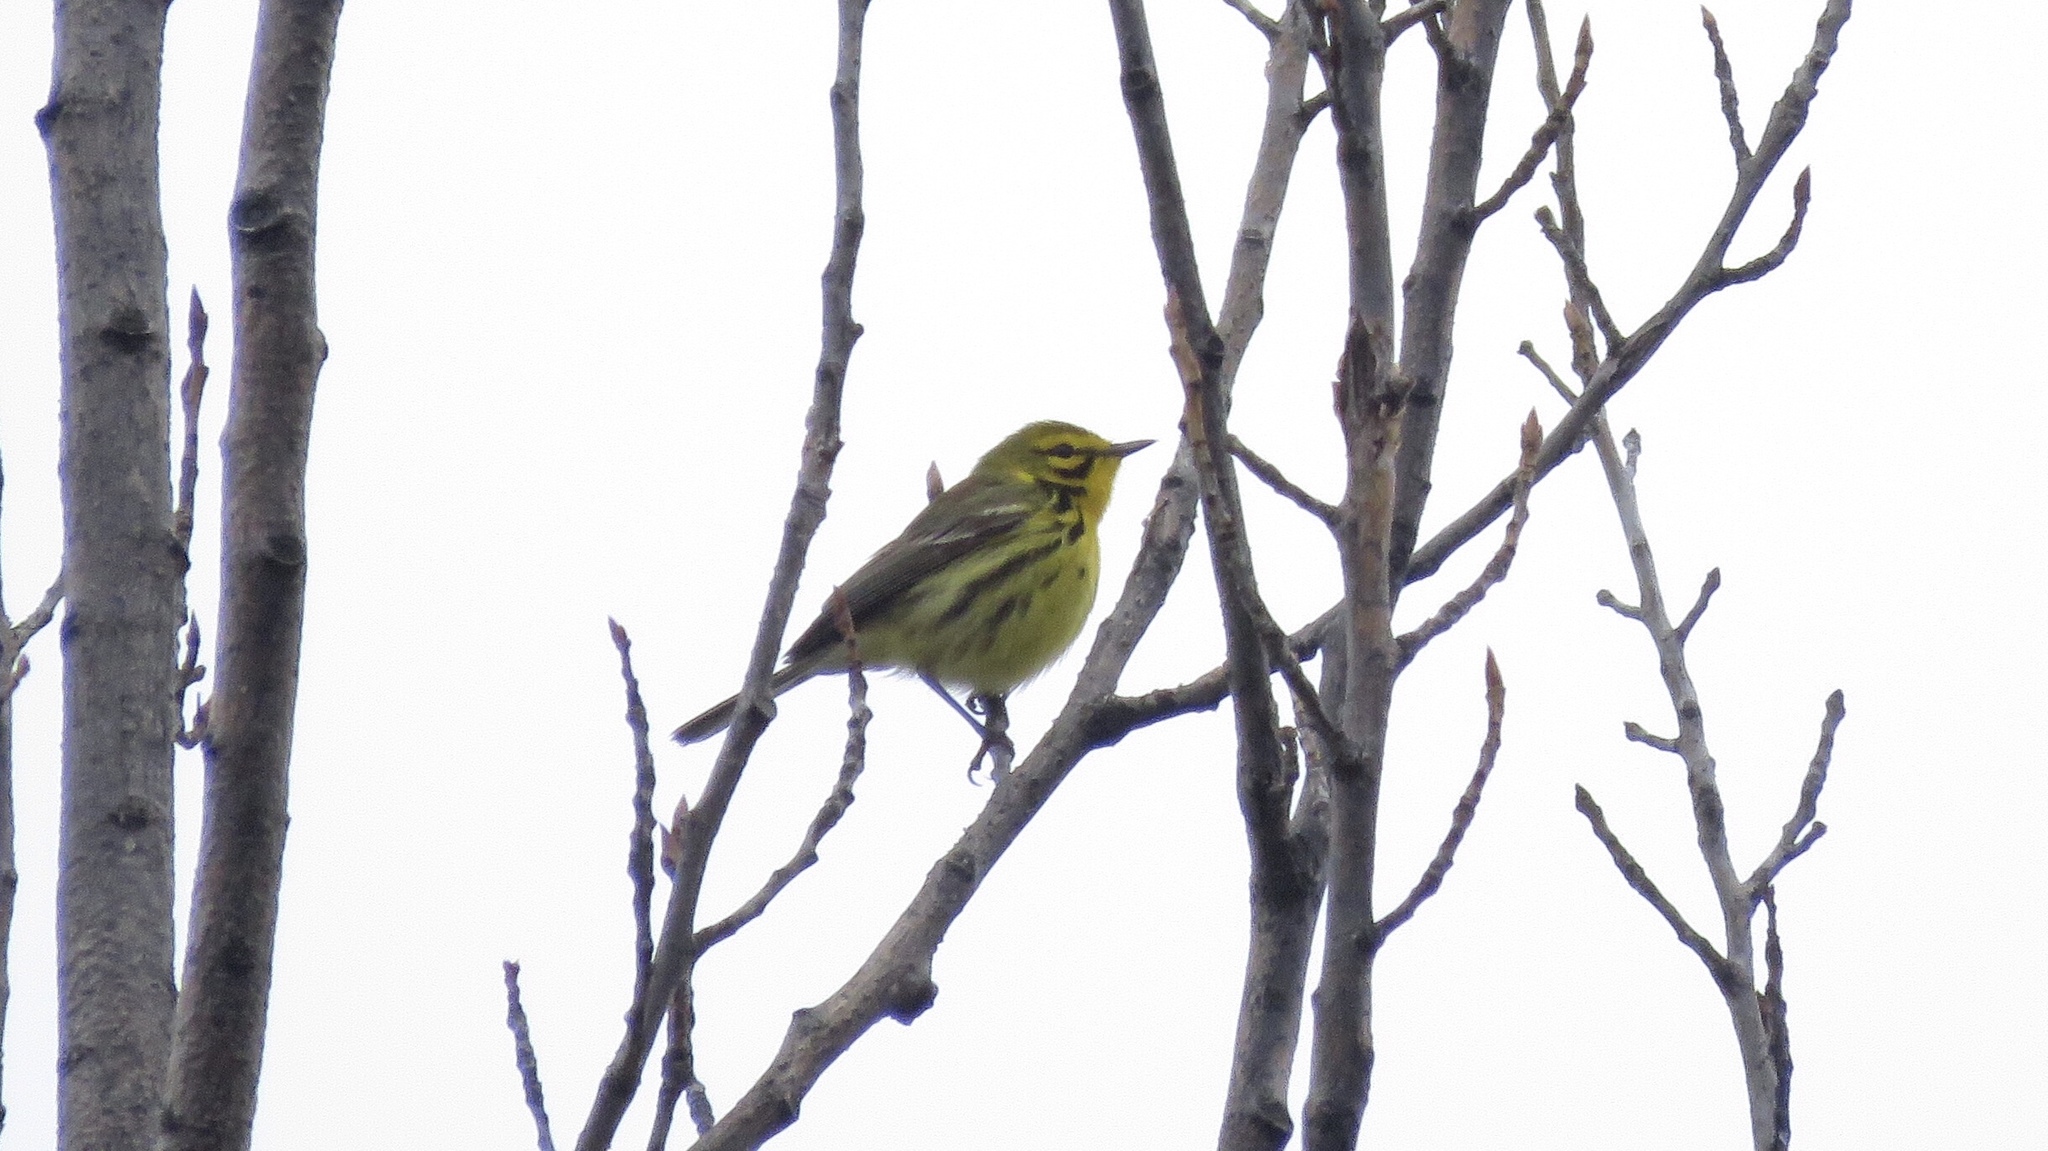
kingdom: Animalia
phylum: Chordata
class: Aves
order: Passeriformes
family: Parulidae
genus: Setophaga
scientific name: Setophaga discolor
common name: Prairie warbler
